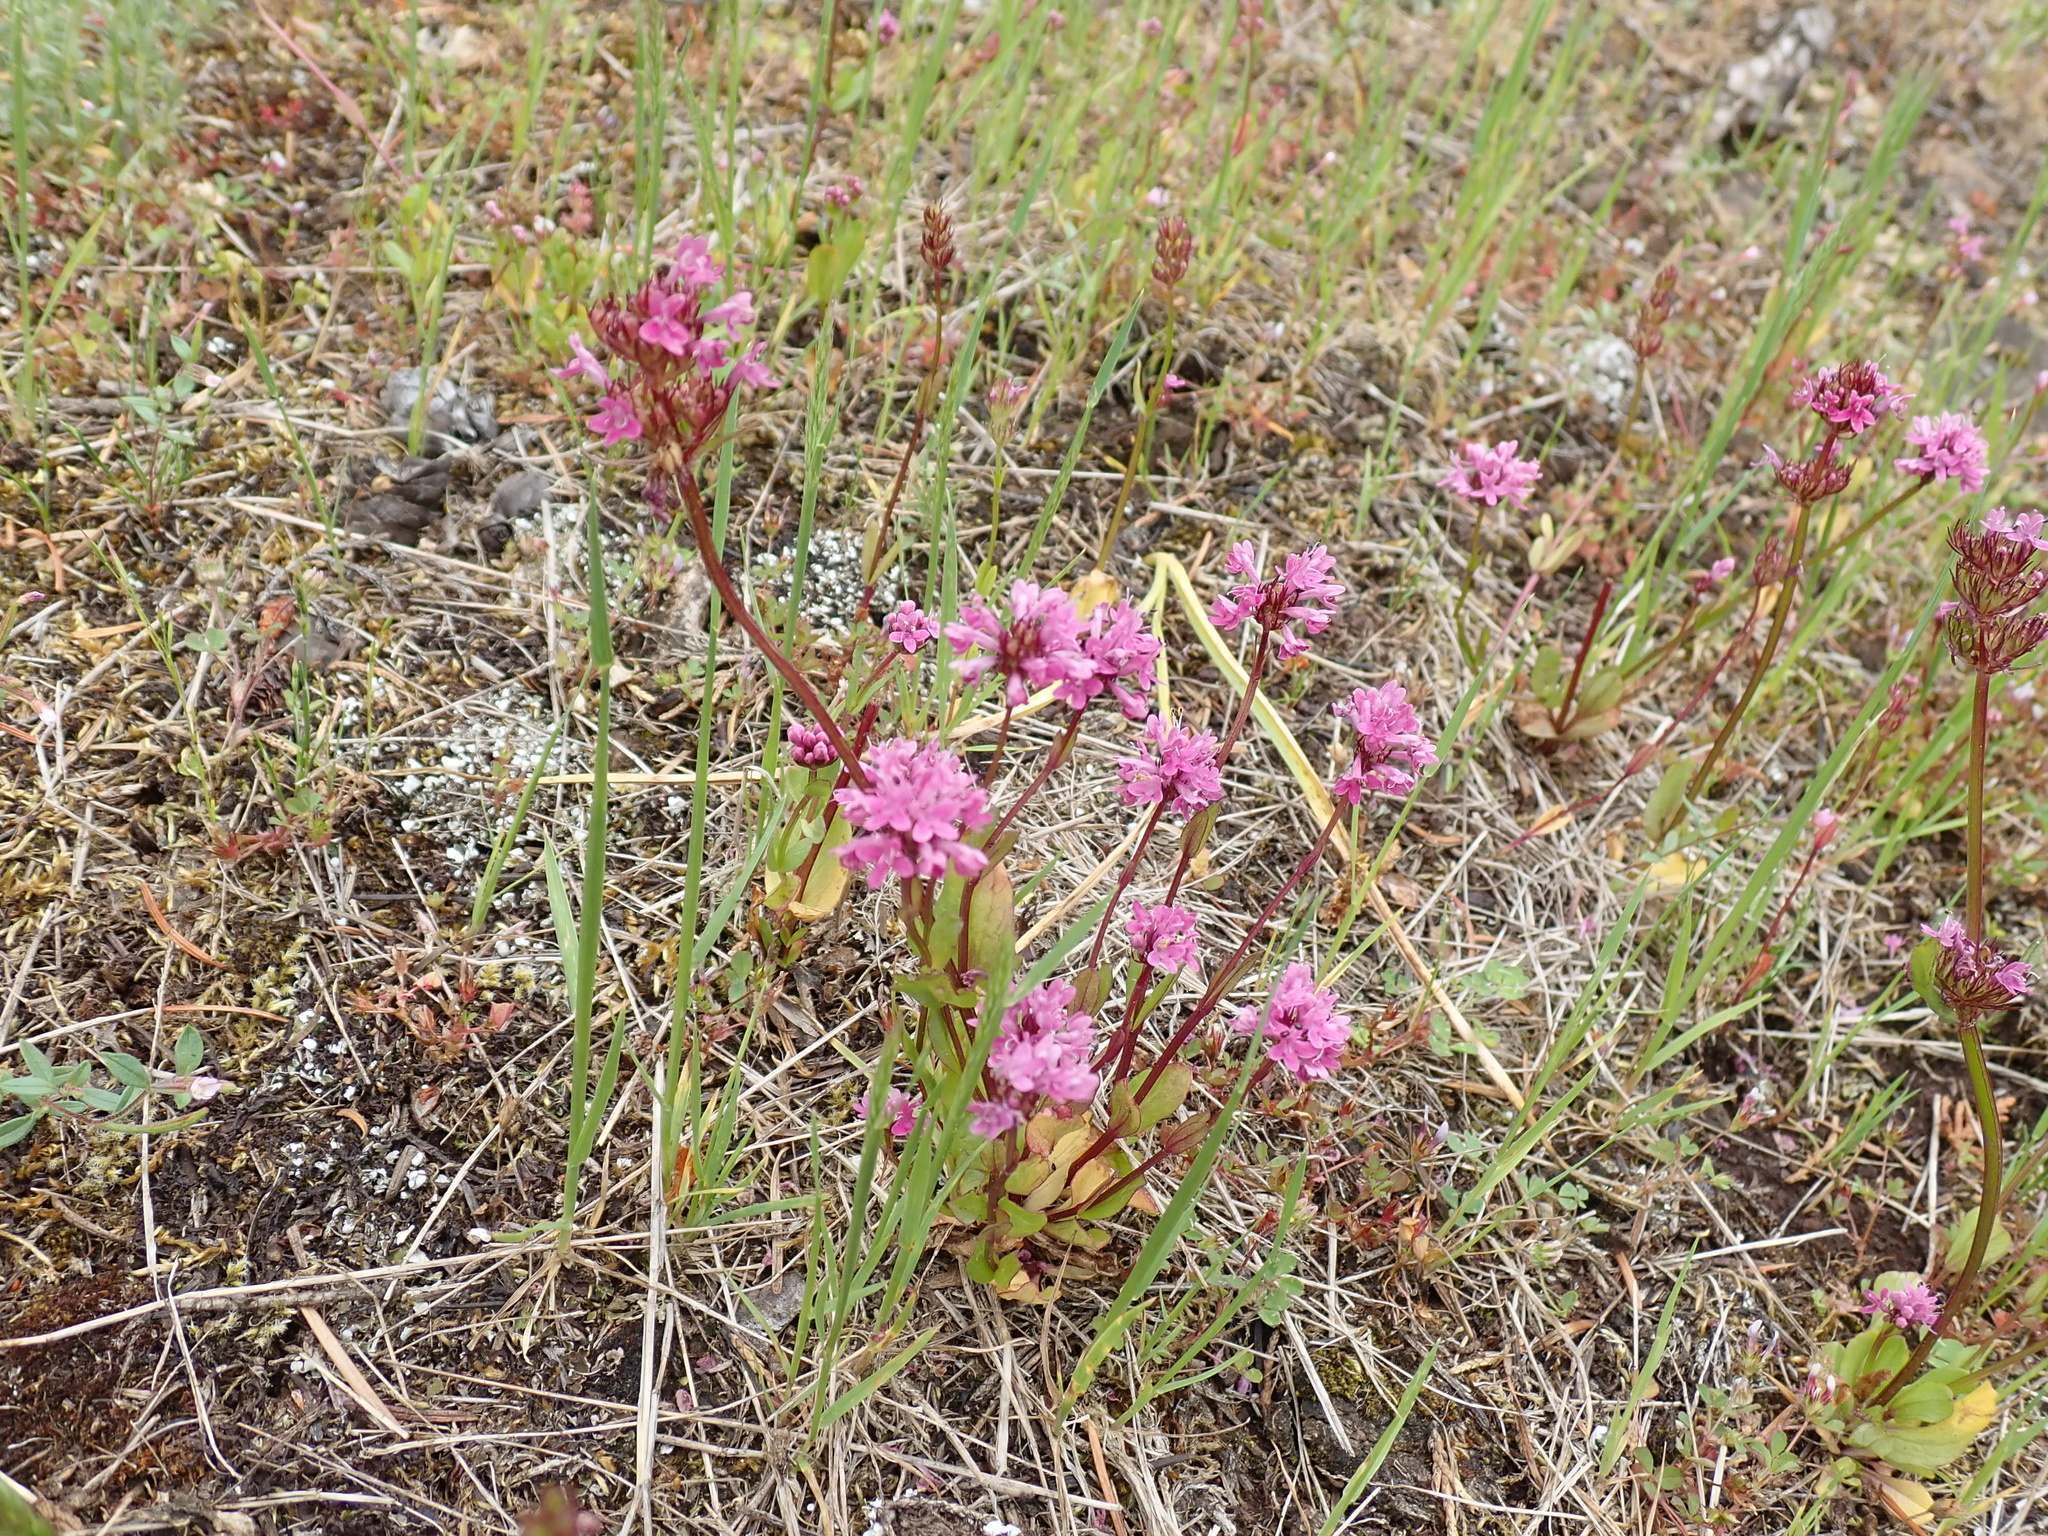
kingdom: Plantae
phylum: Tracheophyta
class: Magnoliopsida
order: Dipsacales
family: Caprifoliaceae
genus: Plectritis
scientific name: Plectritis congesta
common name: Pink plectritis
